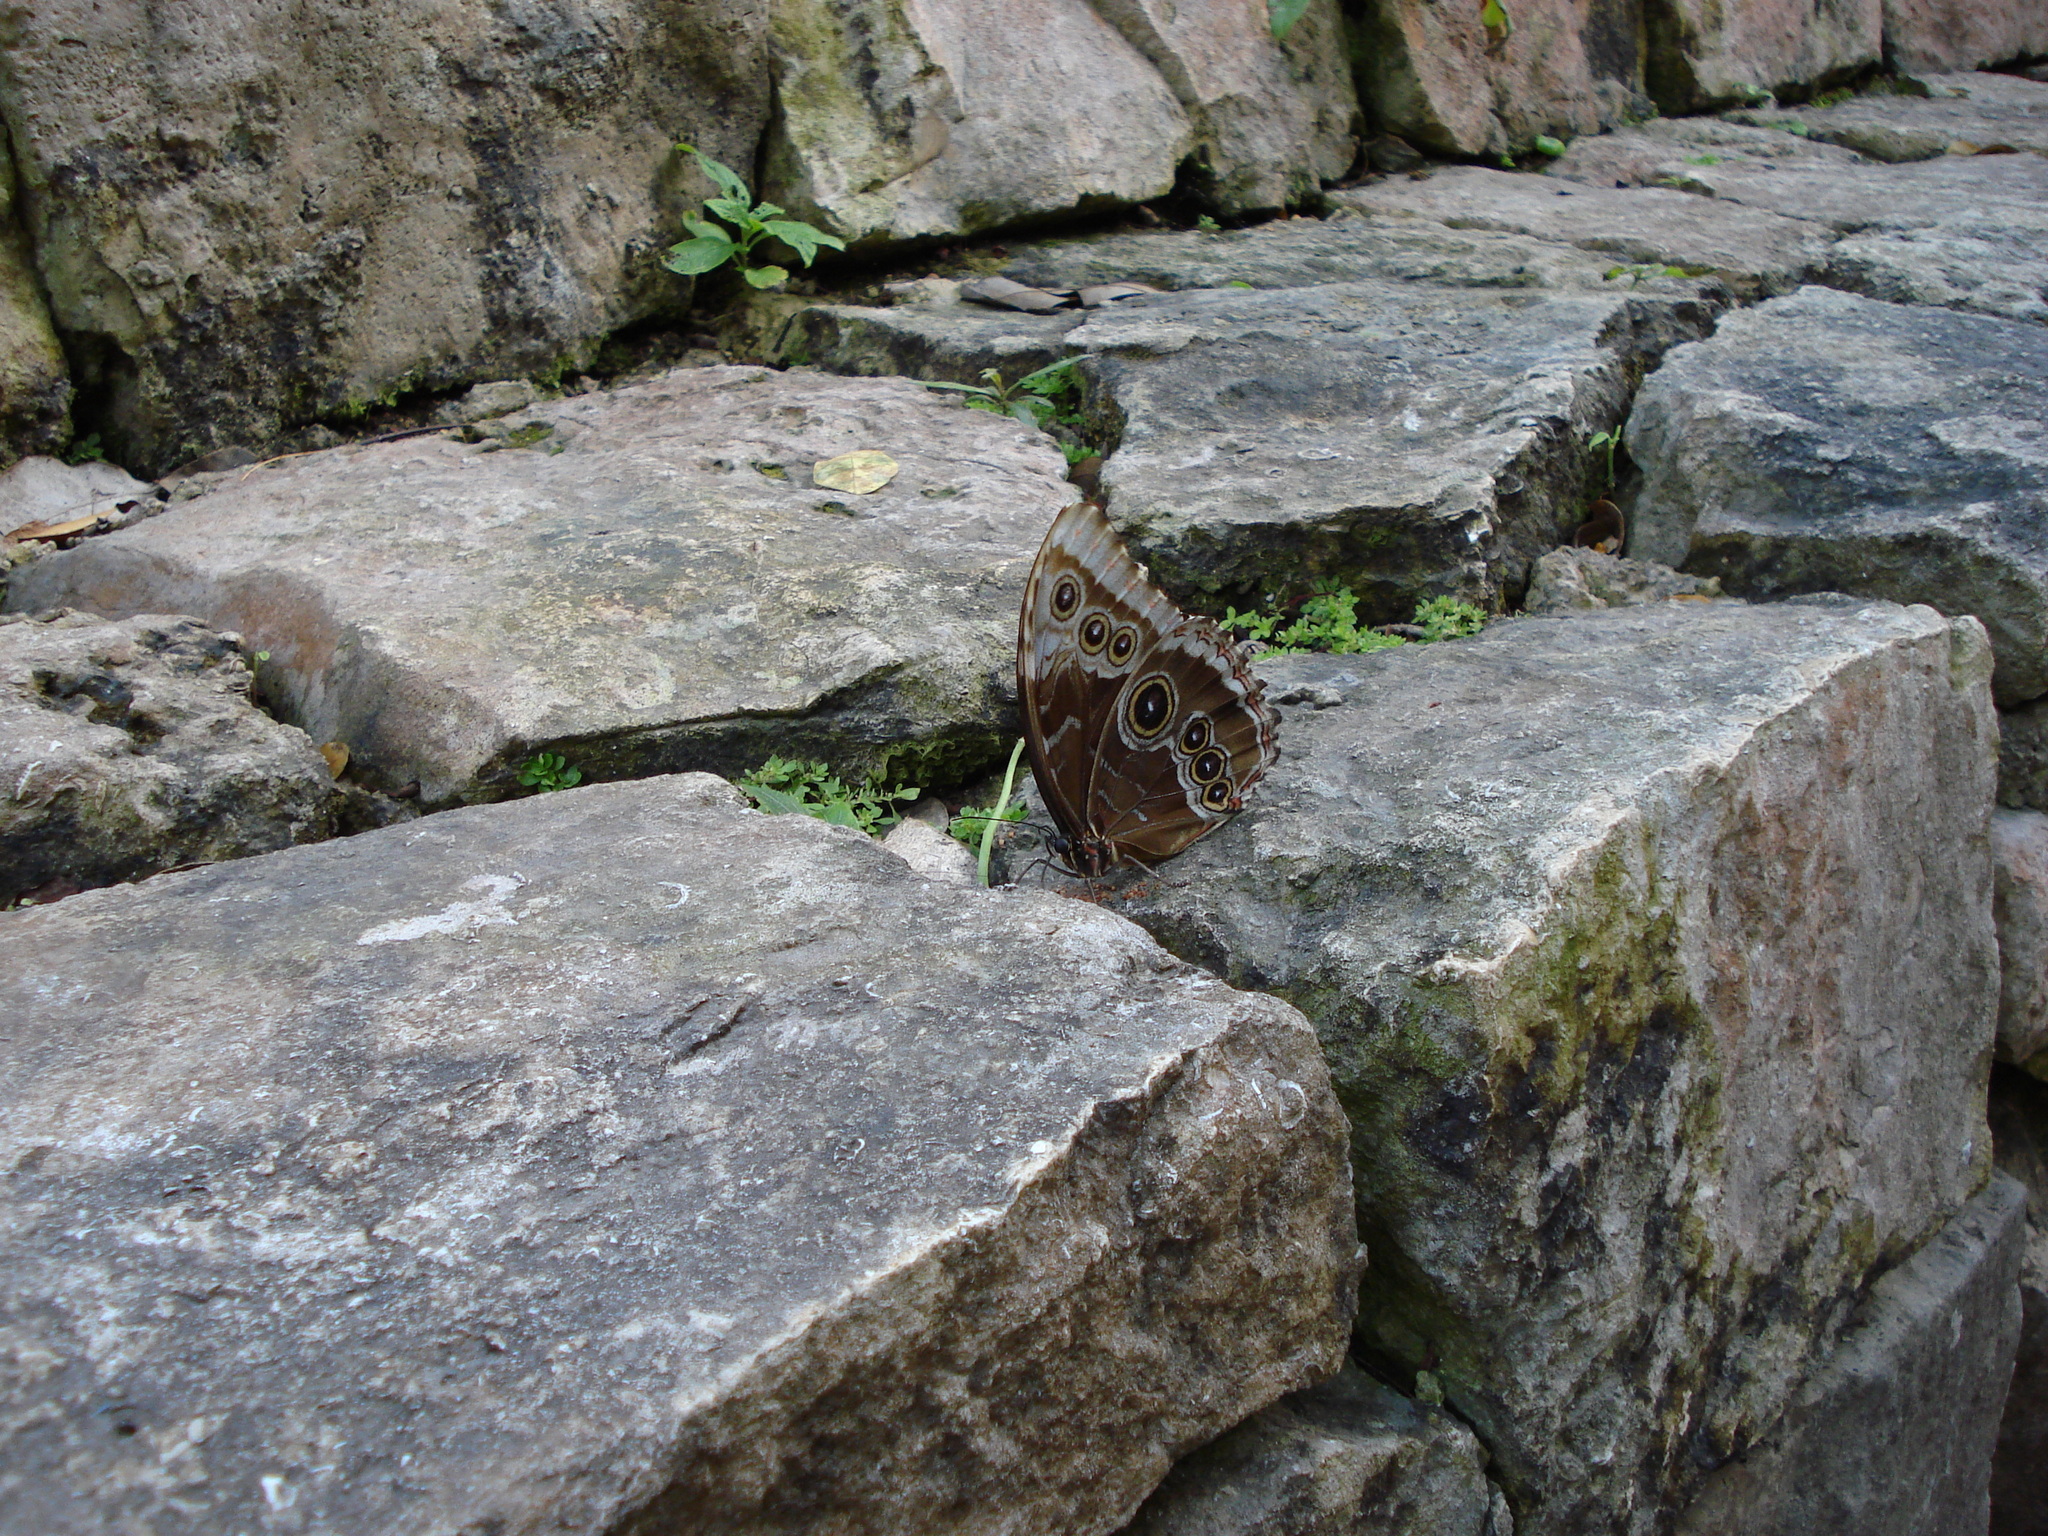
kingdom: Animalia
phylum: Arthropoda
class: Insecta
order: Lepidoptera
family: Nymphalidae
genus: Morpho
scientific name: Morpho helenor
